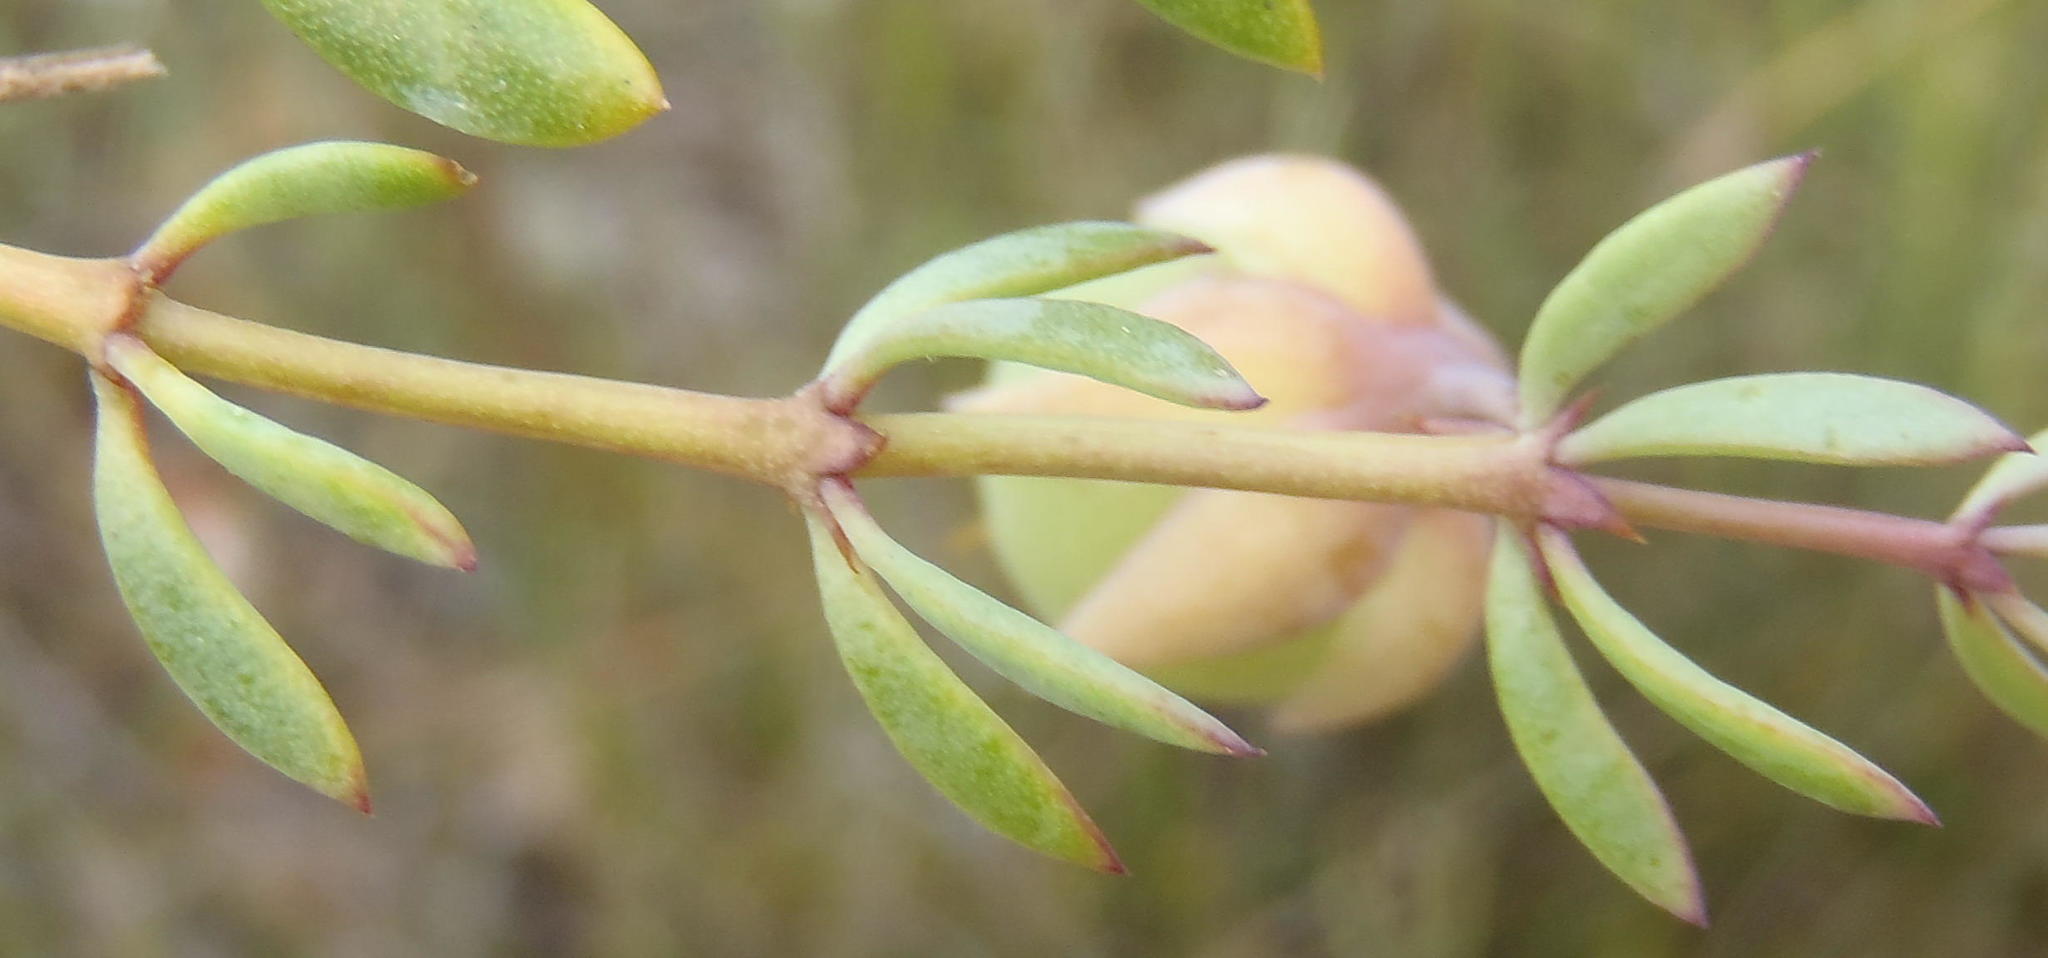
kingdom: Plantae
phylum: Tracheophyta
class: Magnoliopsida
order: Zygophyllales
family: Zygophyllaceae
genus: Roepera
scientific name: Roepera fulva
